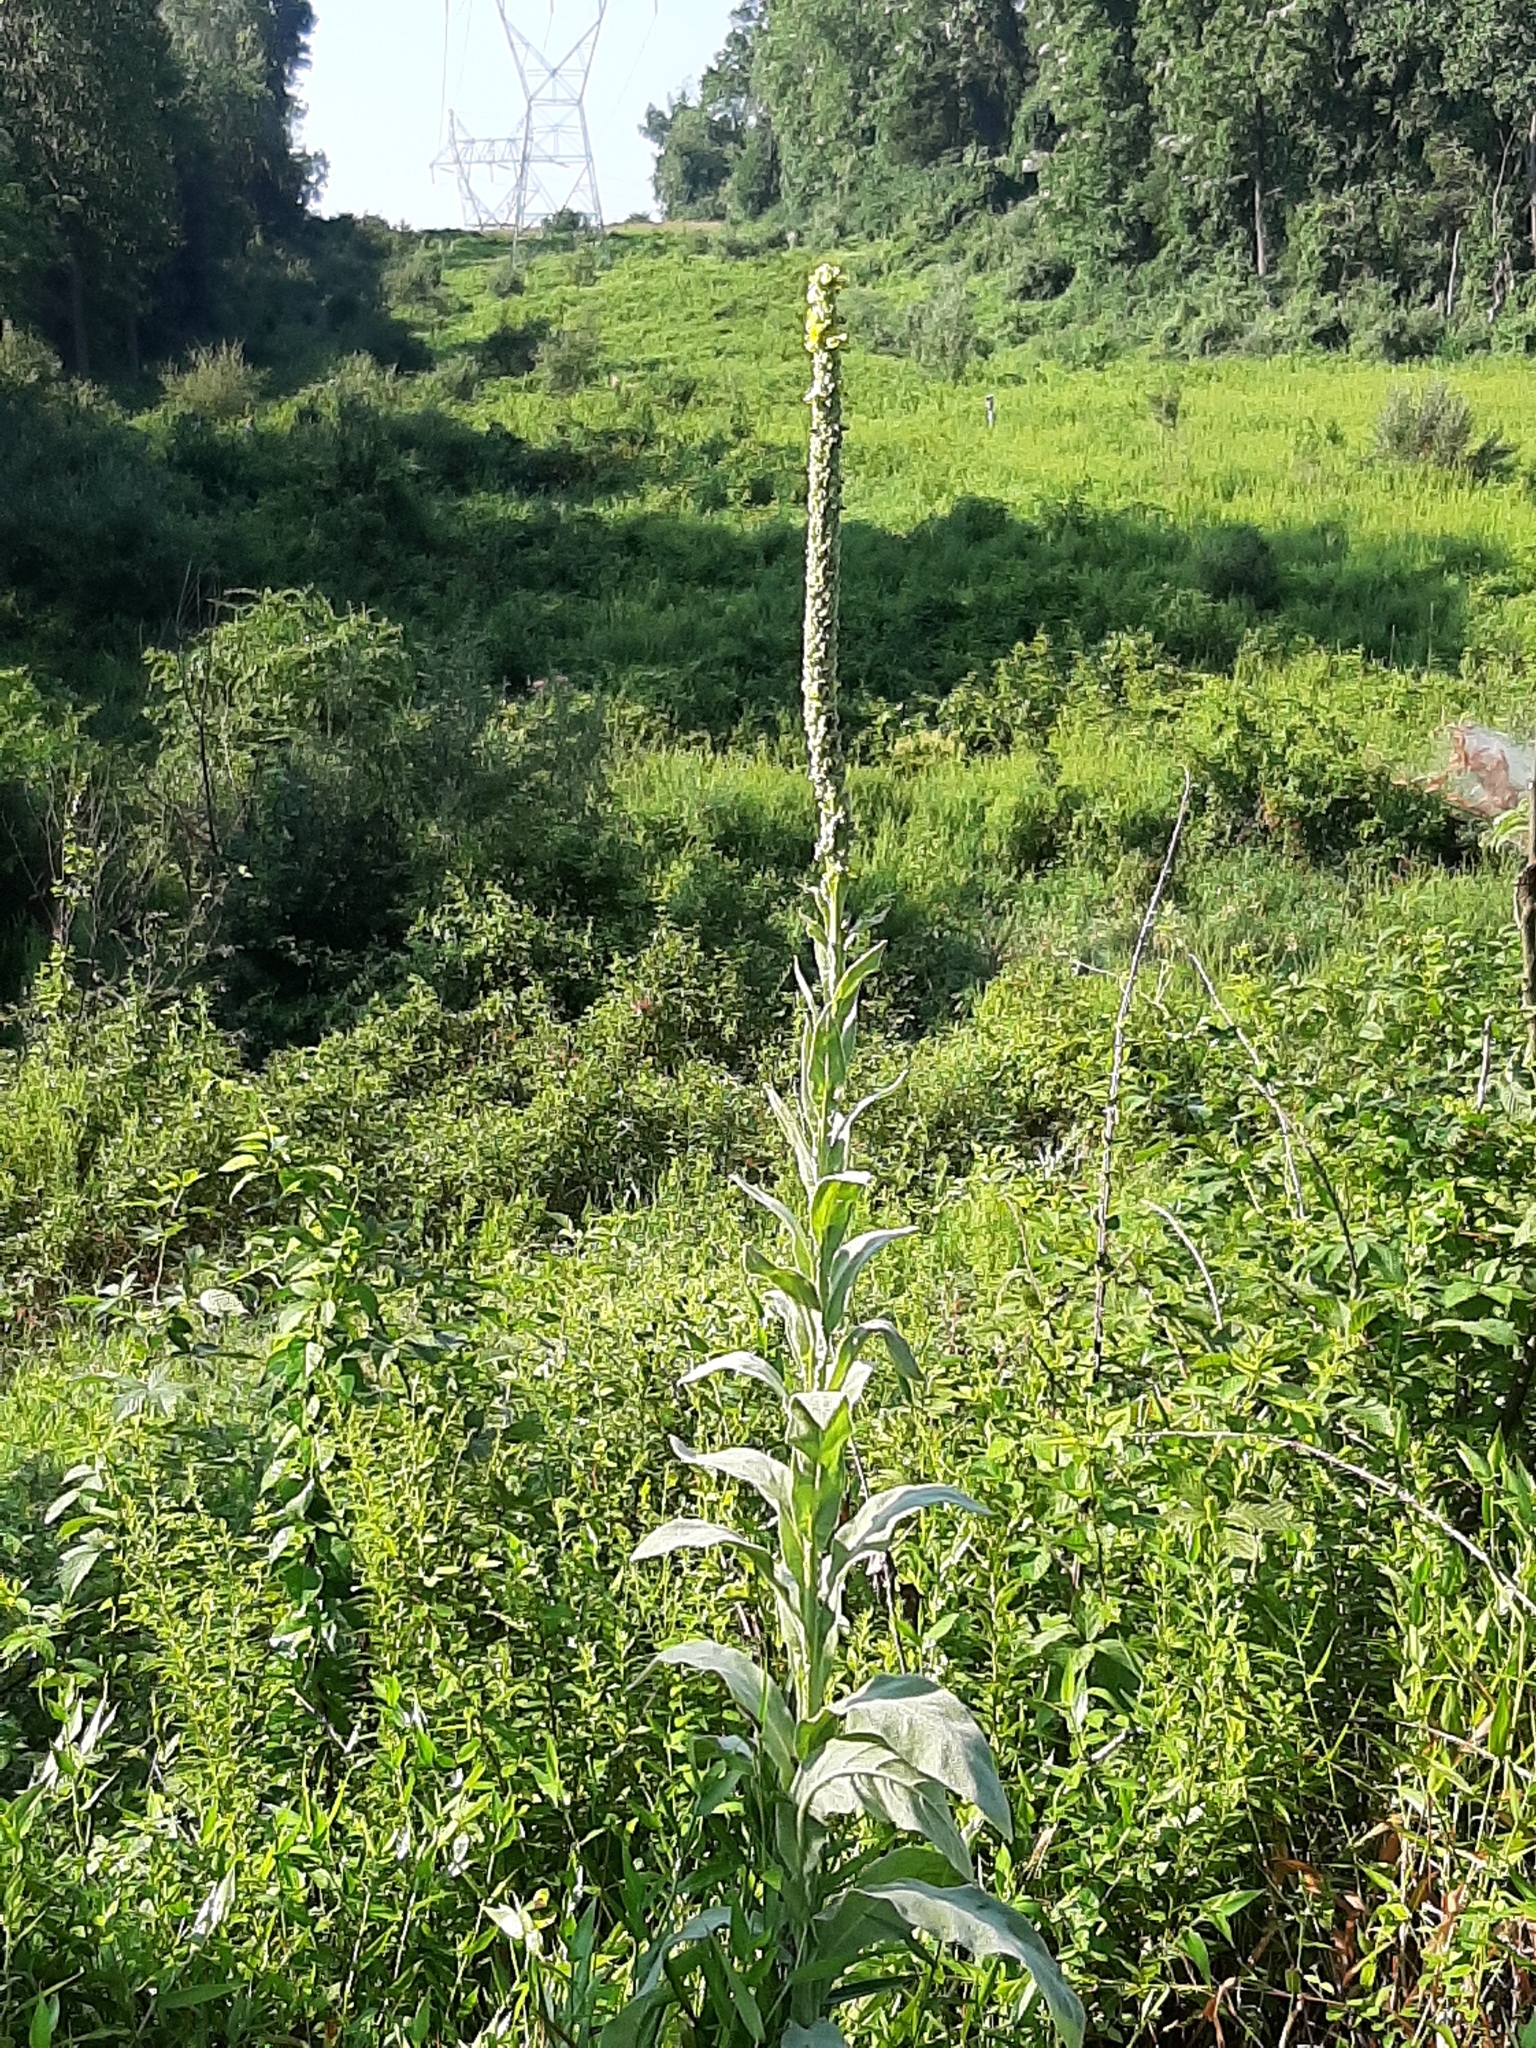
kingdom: Plantae
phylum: Tracheophyta
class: Magnoliopsida
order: Lamiales
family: Scrophulariaceae
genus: Verbascum
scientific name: Verbascum thapsus
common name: Common mullein
